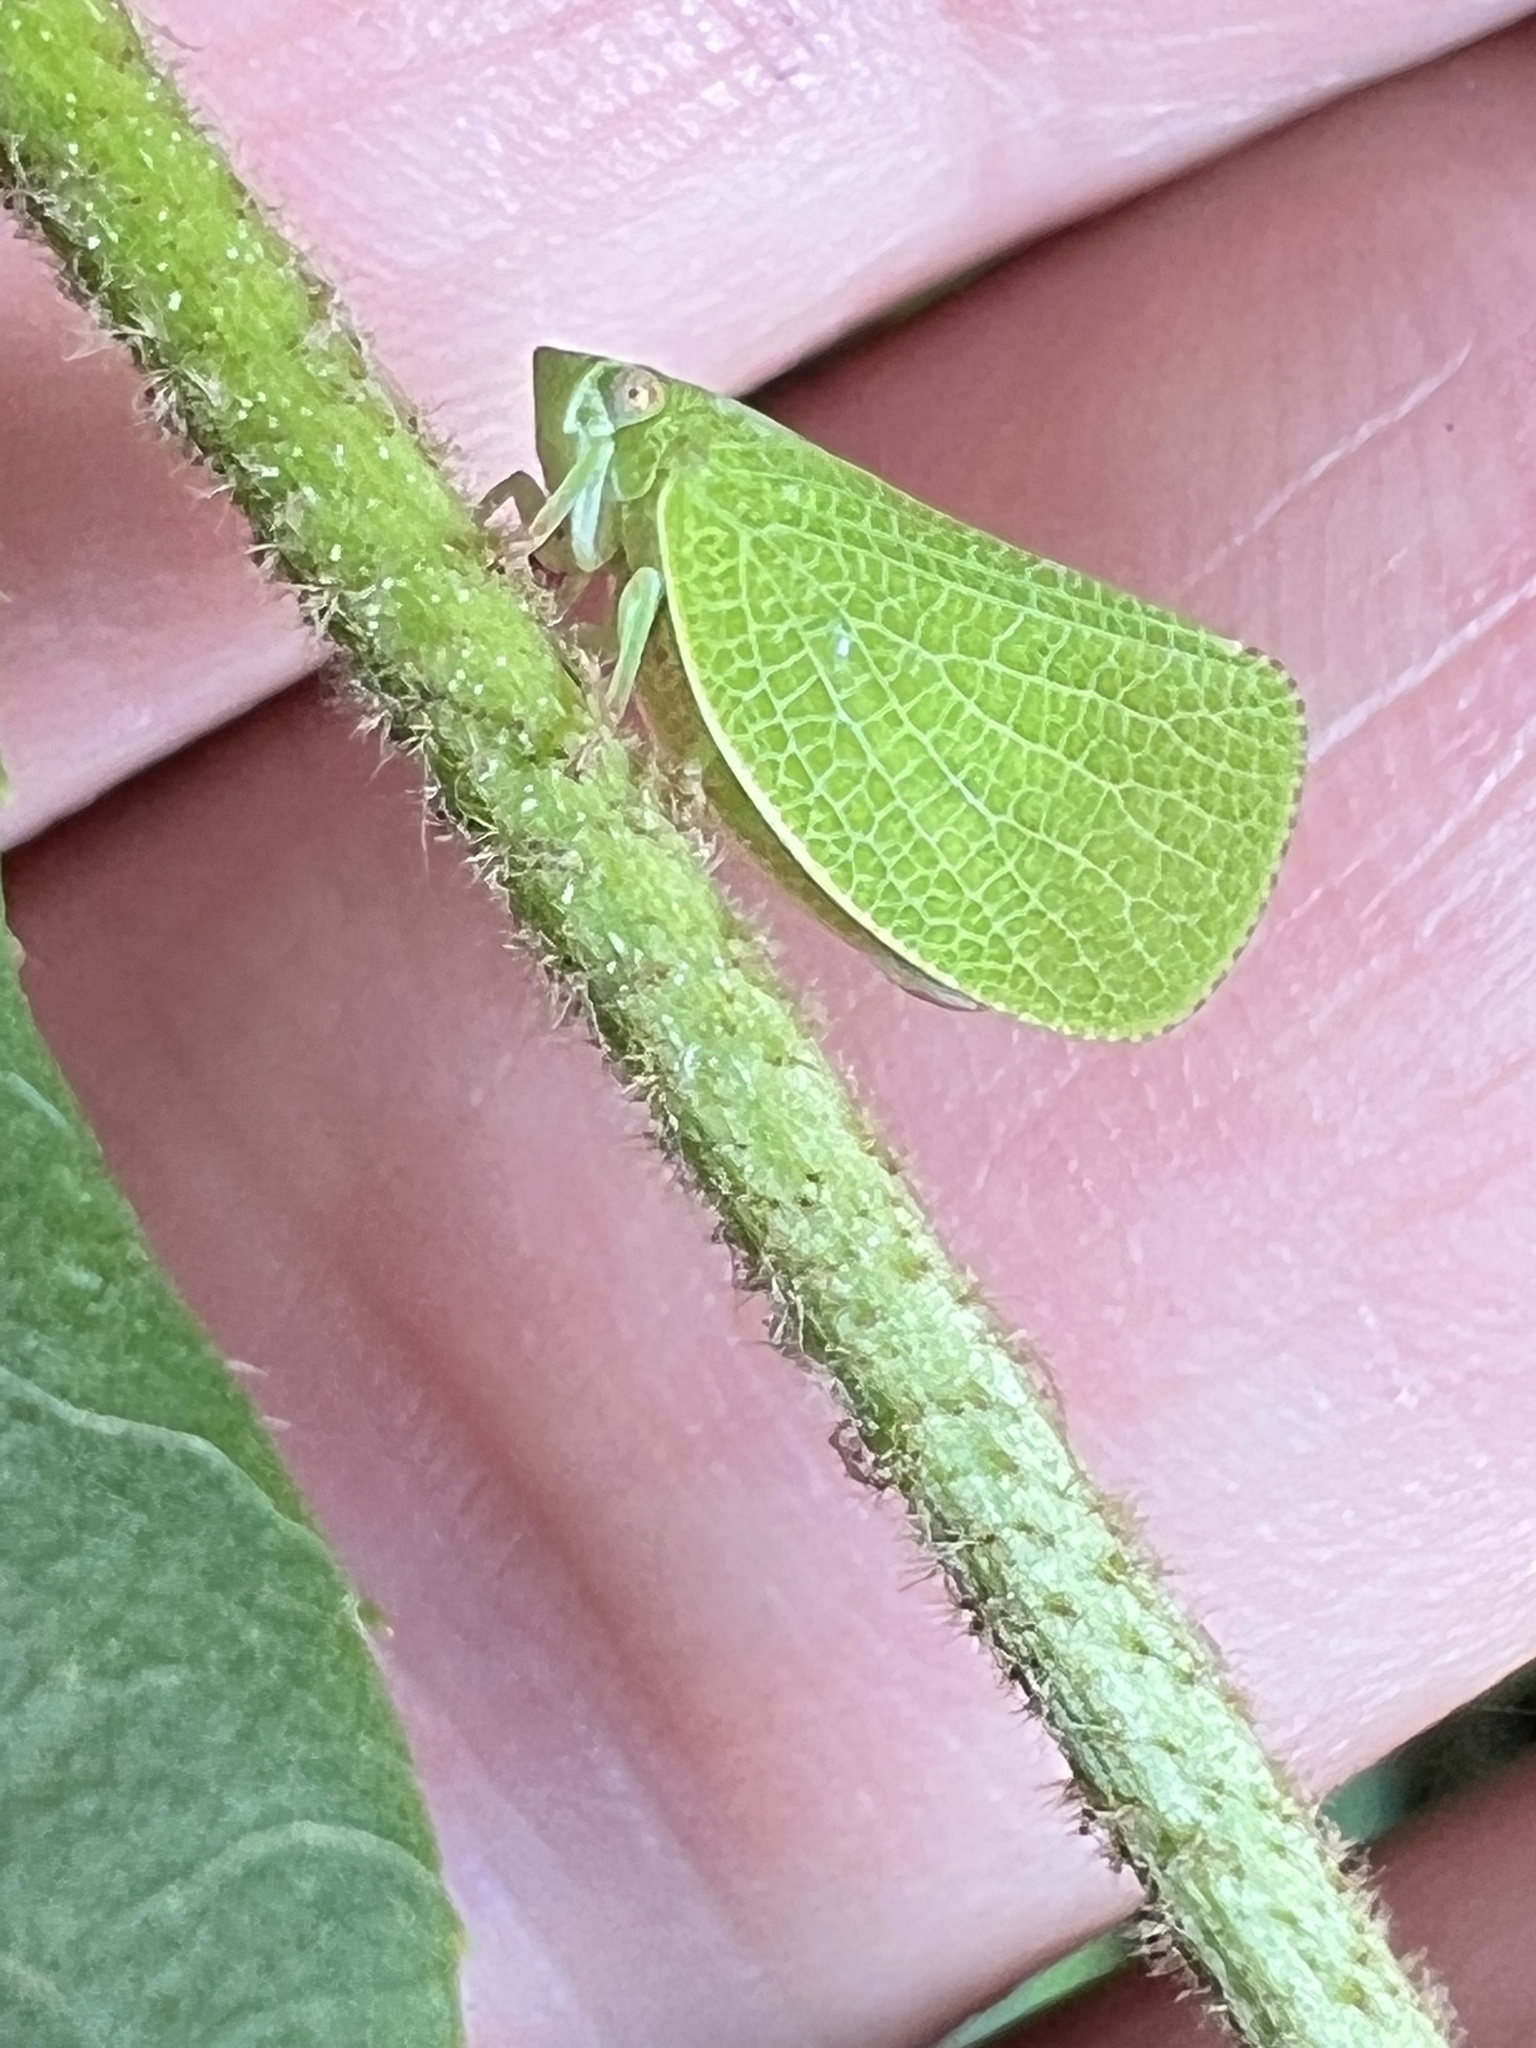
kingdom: Animalia
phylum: Arthropoda
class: Insecta
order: Hemiptera
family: Acanaloniidae
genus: Acanalonia
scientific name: Acanalonia conica
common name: Green cone-headed planthopper
